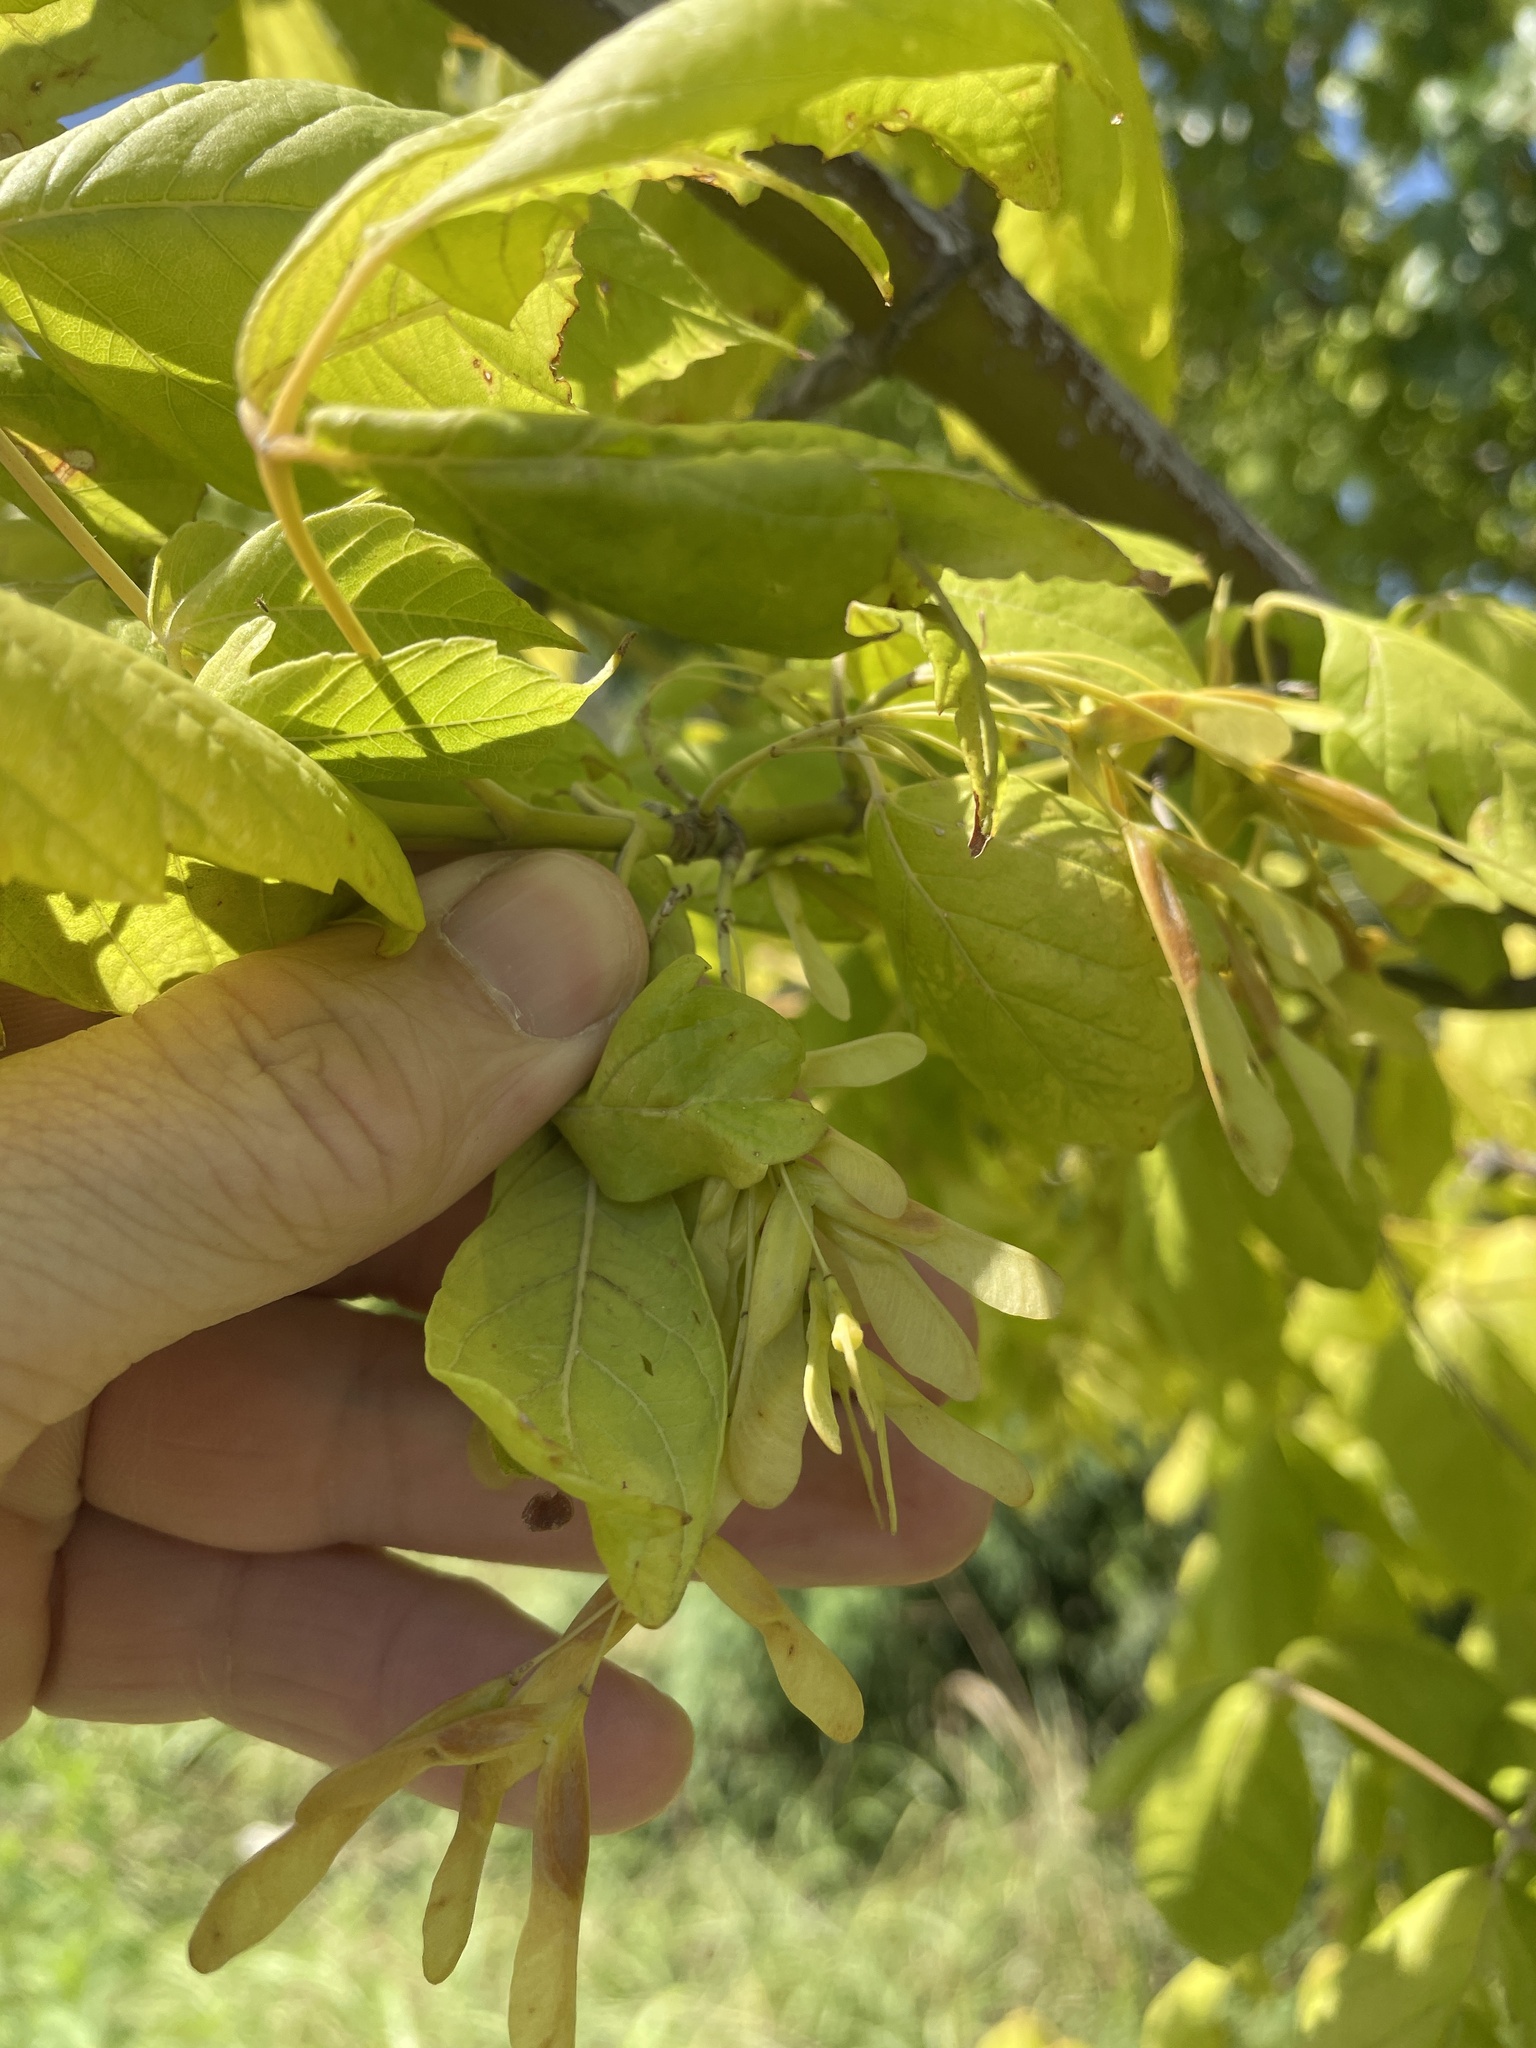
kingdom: Plantae
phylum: Tracheophyta
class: Magnoliopsida
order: Sapindales
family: Sapindaceae
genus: Acer
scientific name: Acer negundo
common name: Ashleaf maple
